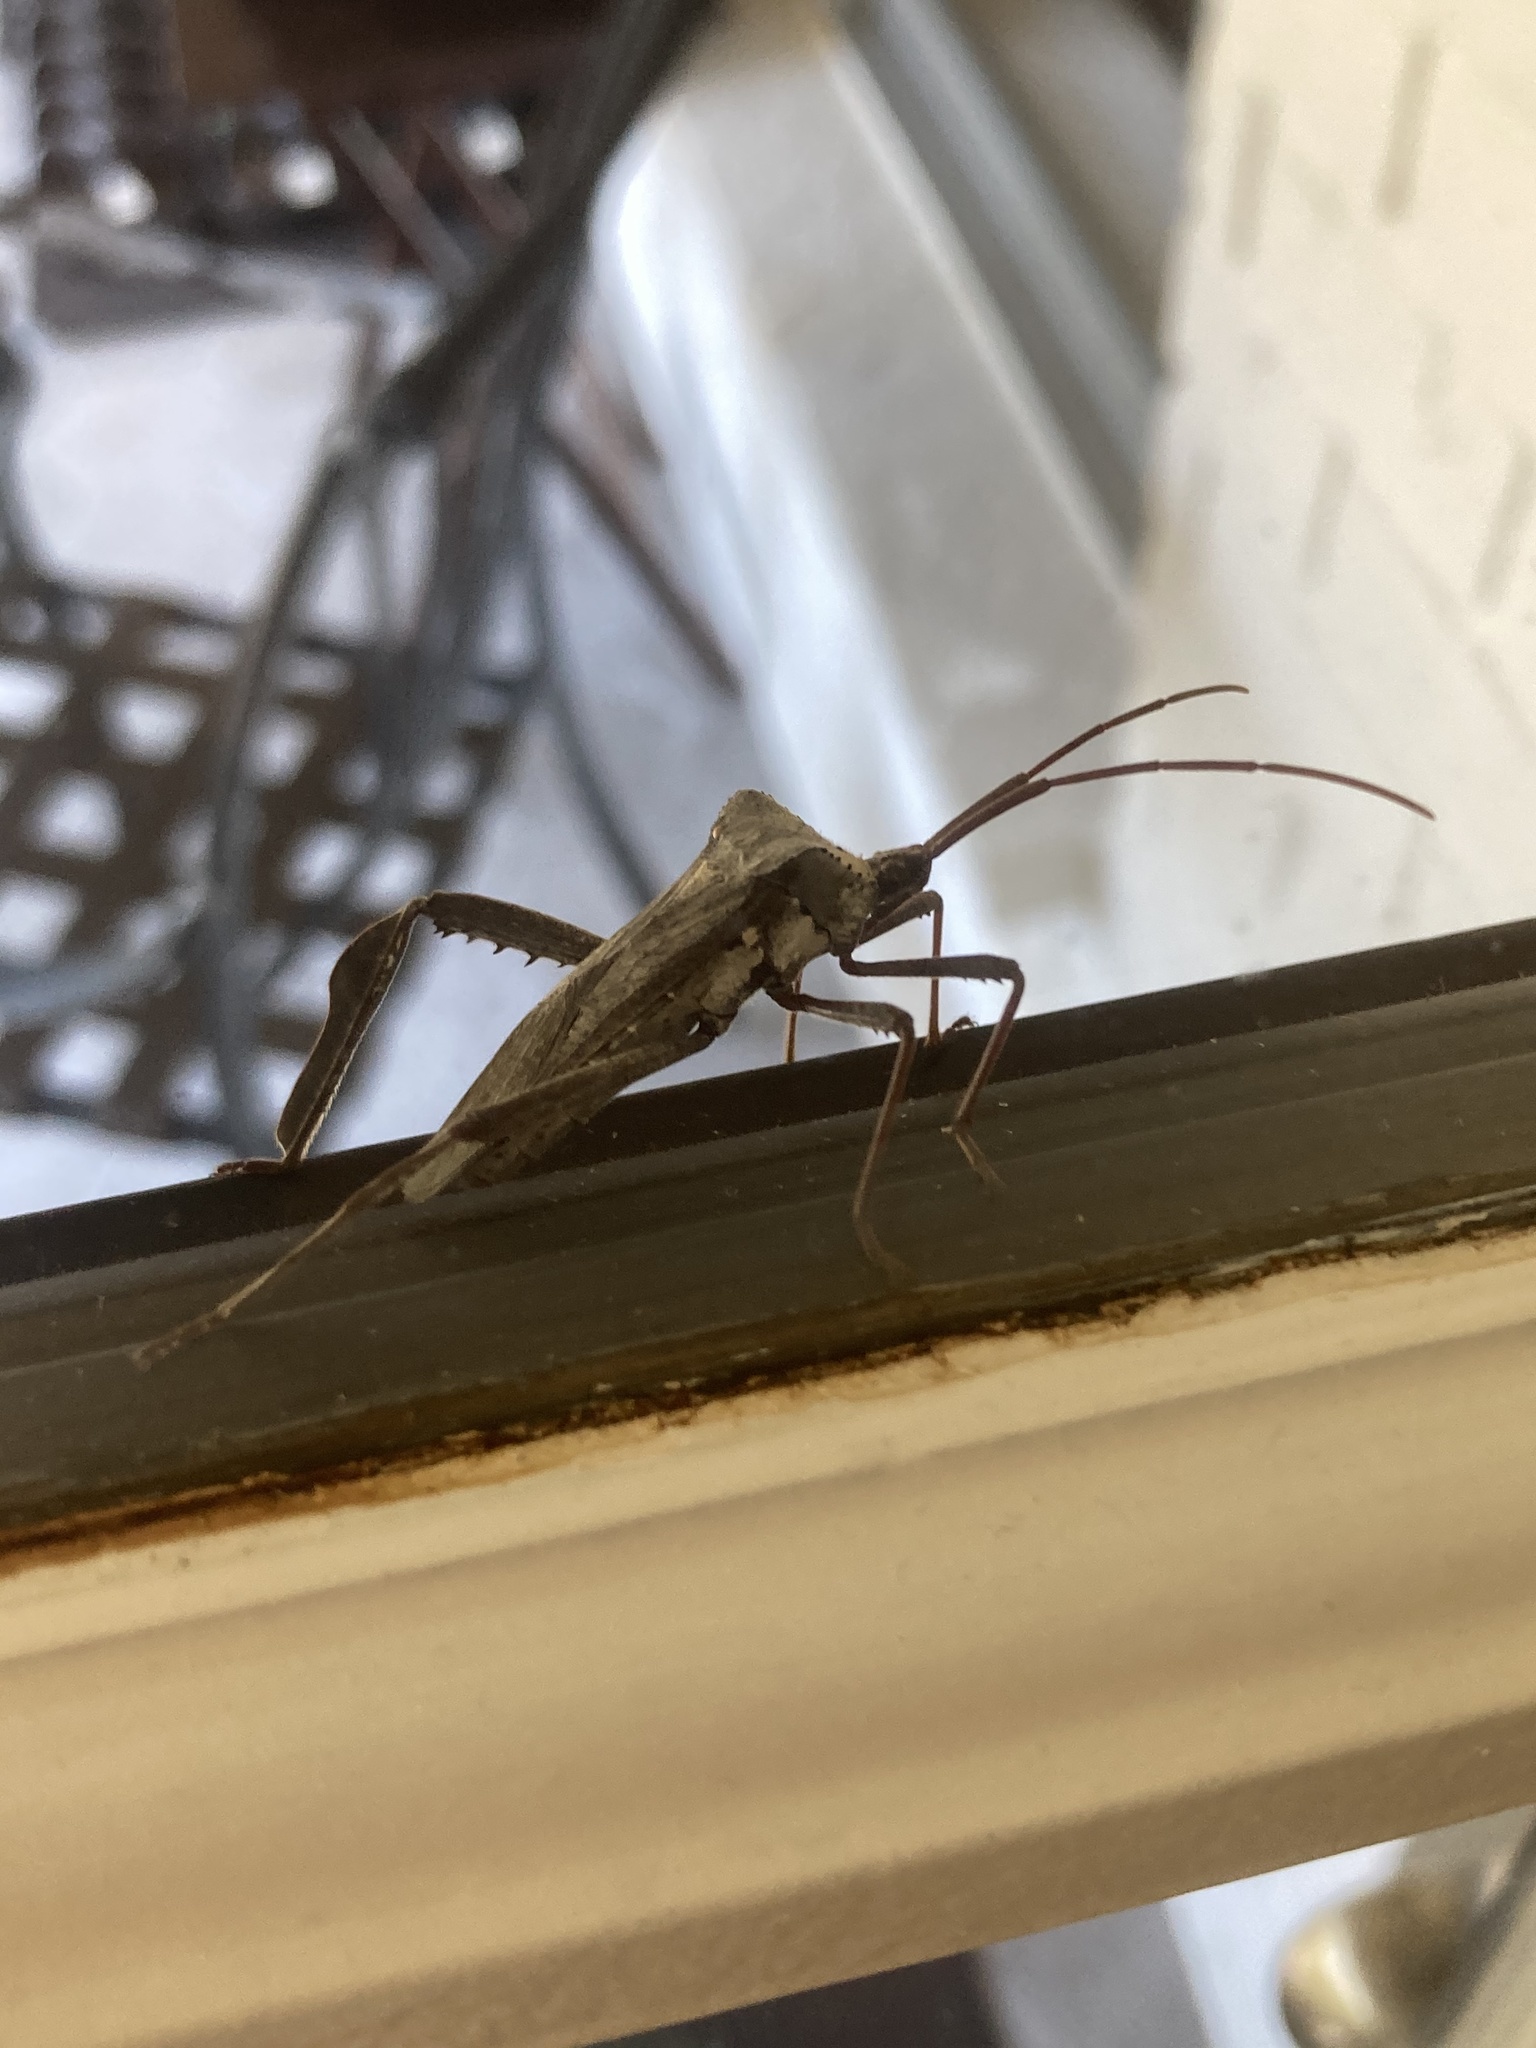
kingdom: Animalia
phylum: Arthropoda
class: Insecta
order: Hemiptera
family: Coreidae
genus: Acanthocephala
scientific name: Acanthocephala declivis
